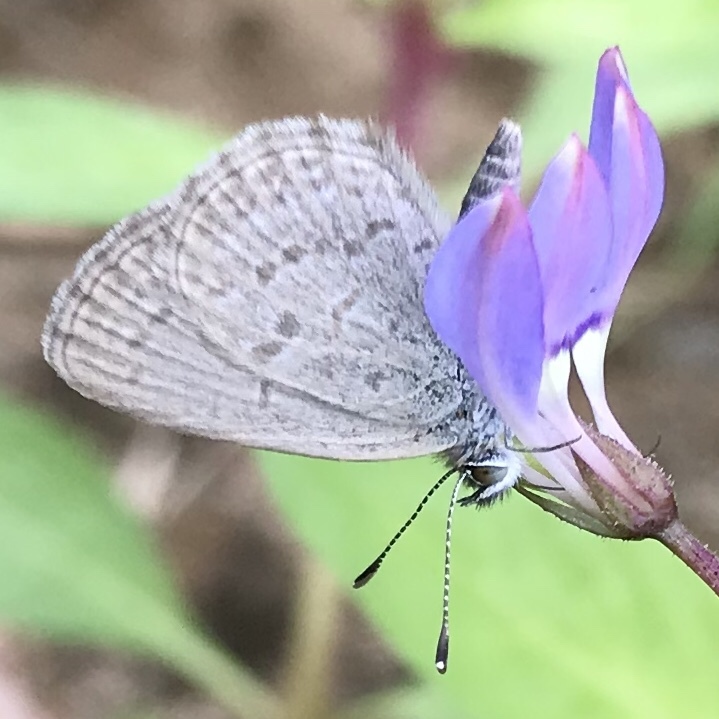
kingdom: Animalia
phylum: Arthropoda
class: Insecta
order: Lepidoptera
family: Lycaenidae
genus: Zizina
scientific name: Zizina otis
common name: Lesser grass blue
